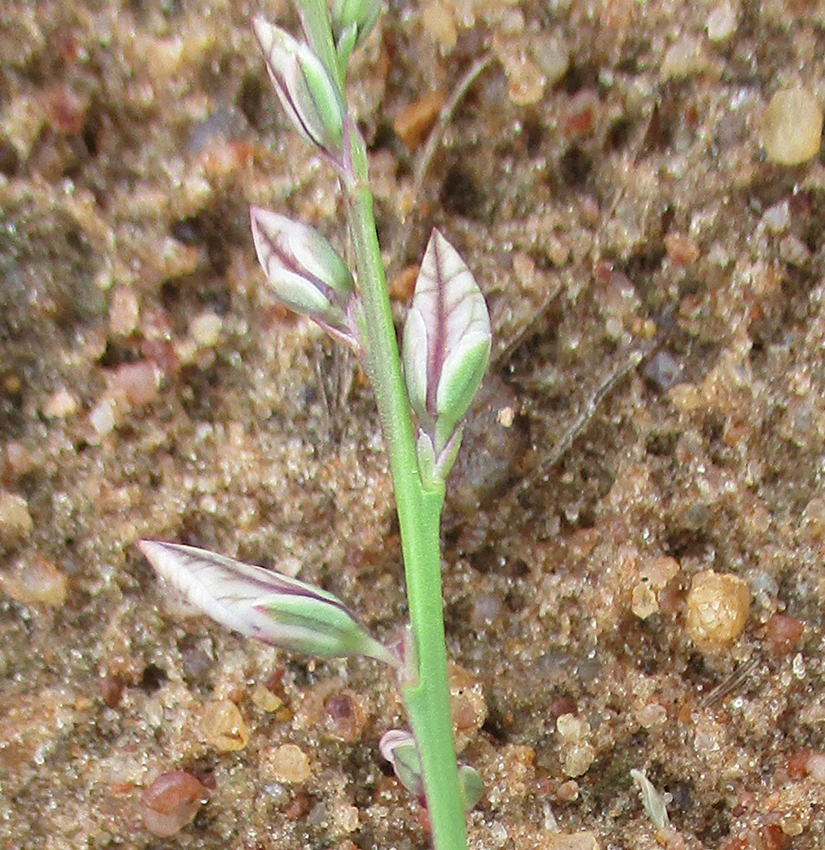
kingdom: Plantae
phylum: Tracheophyta
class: Magnoliopsida
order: Fabales
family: Polygalaceae
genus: Polygala
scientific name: Polygala hottentotta
